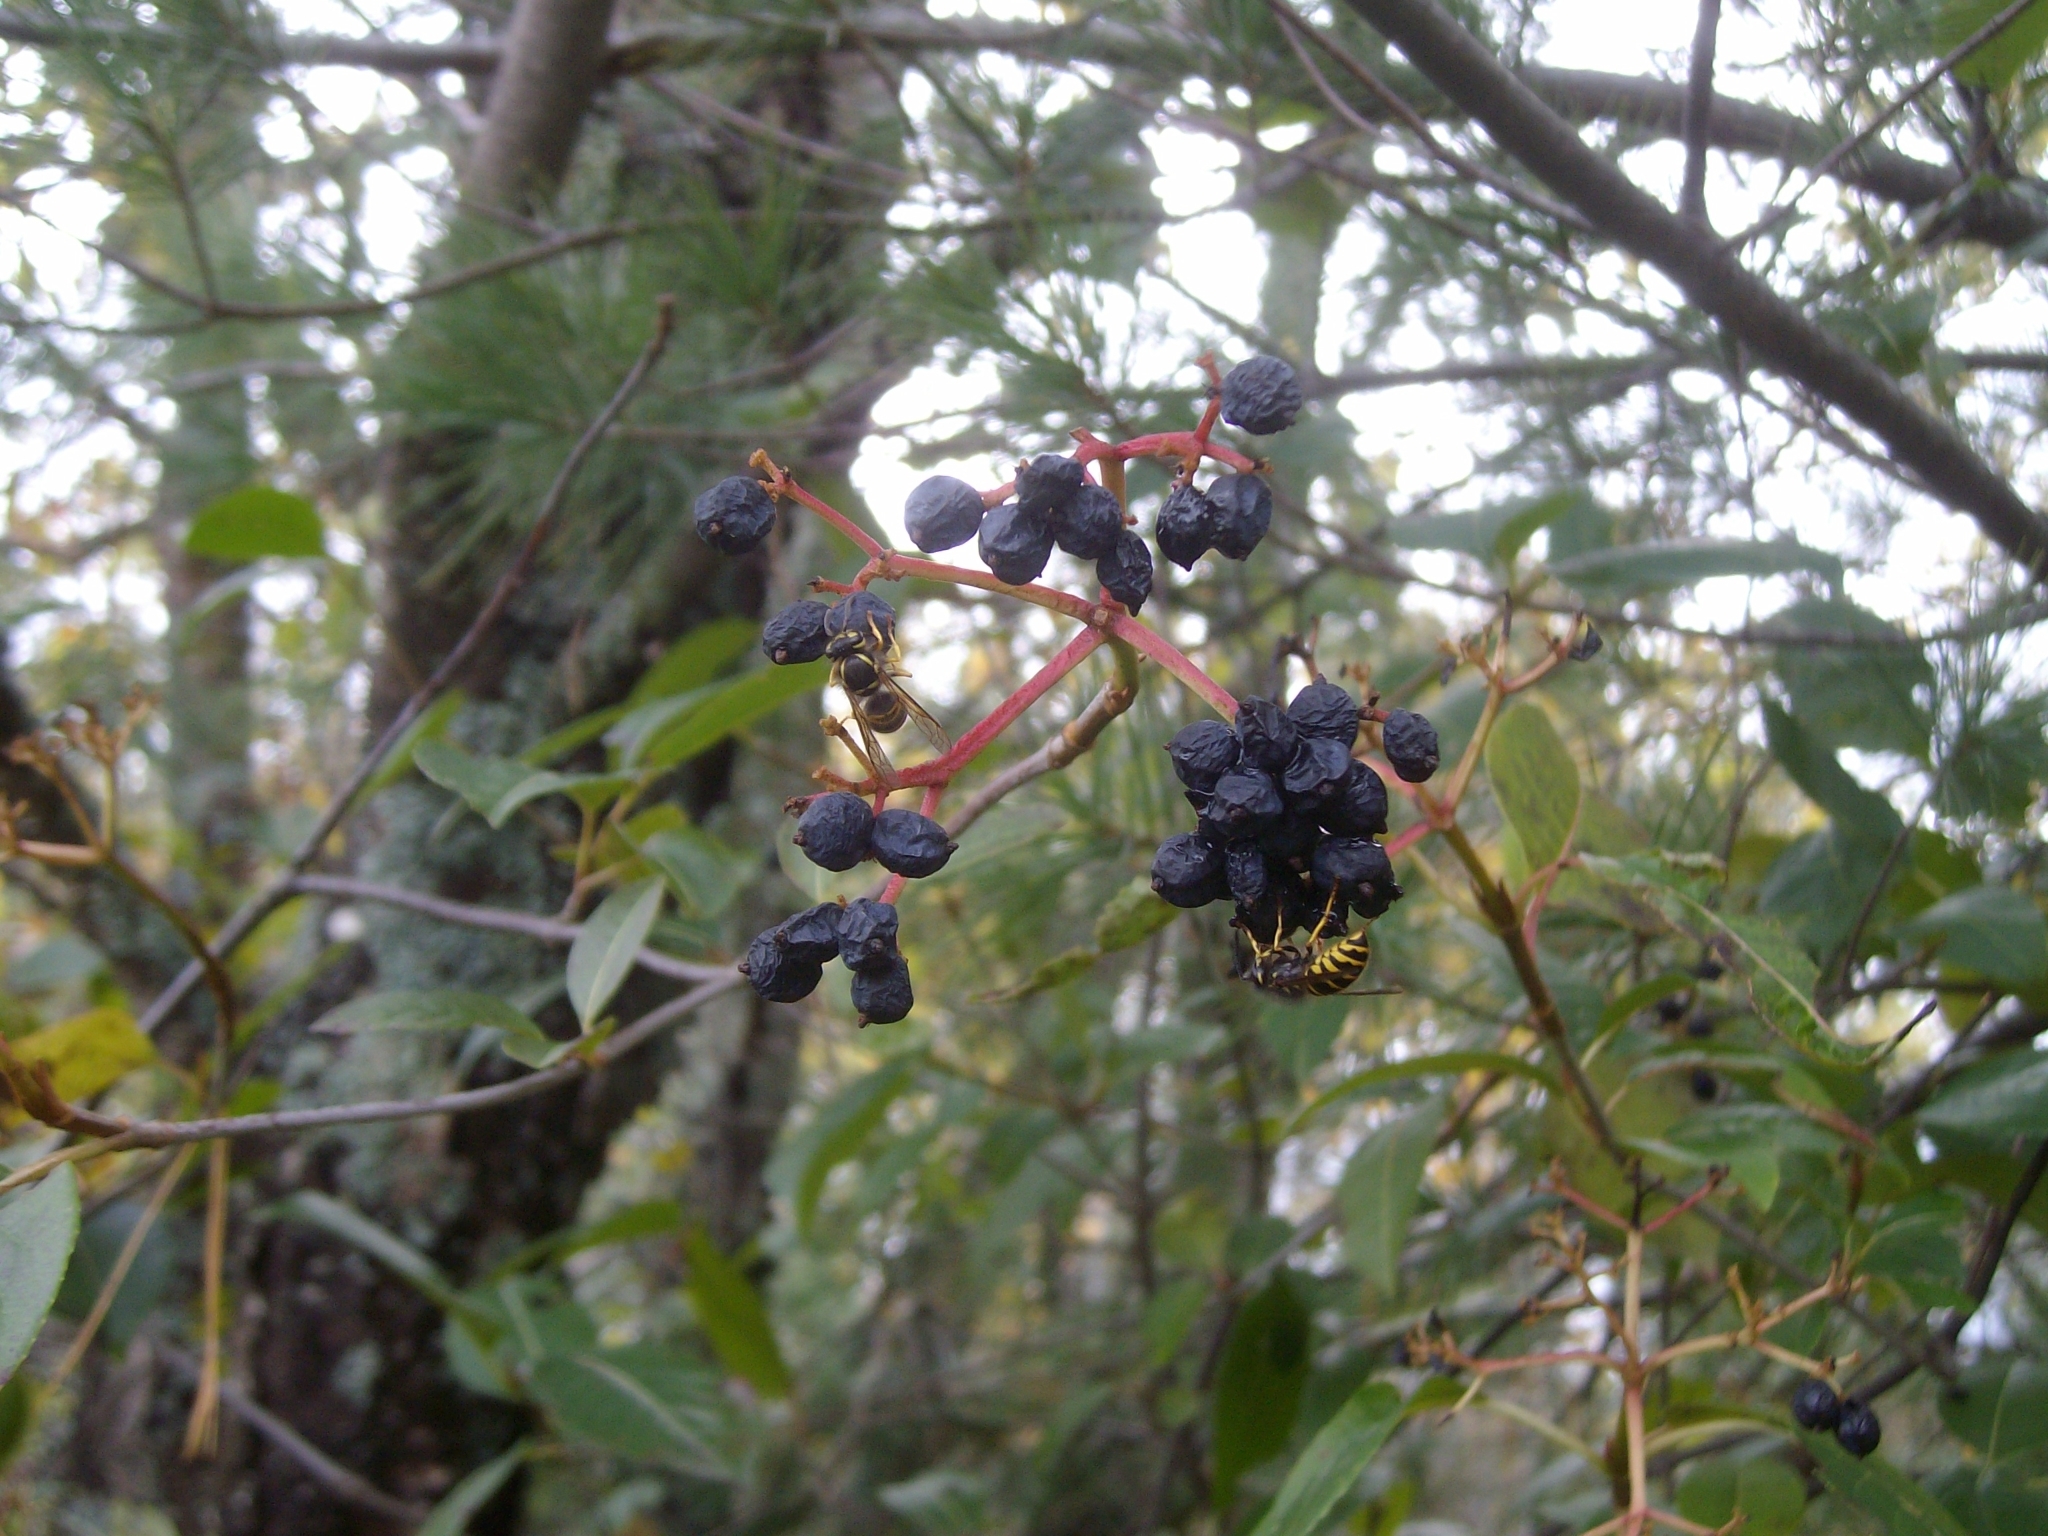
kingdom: Animalia
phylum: Arthropoda
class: Insecta
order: Hymenoptera
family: Vespidae
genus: Vespula
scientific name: Vespula maculifrons
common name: Eastern yellowjacket
